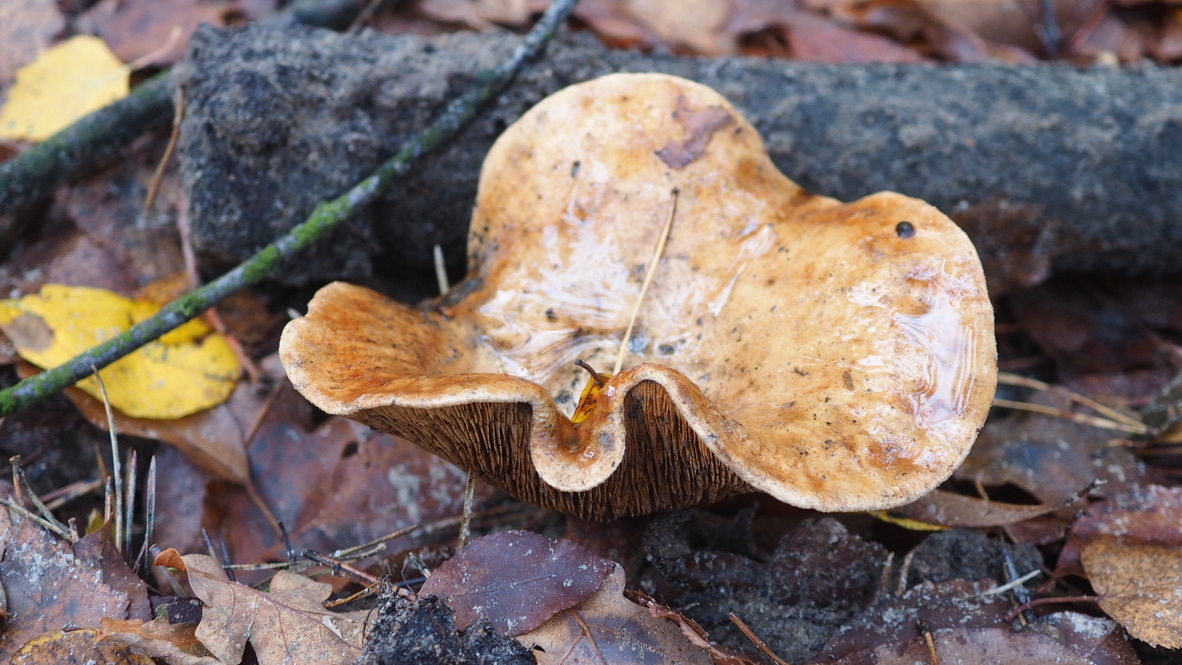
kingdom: Fungi
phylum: Basidiomycota
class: Agaricomycetes
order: Boletales
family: Paxillaceae
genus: Paxillus
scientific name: Paxillus involutus
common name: Brown roll rim
